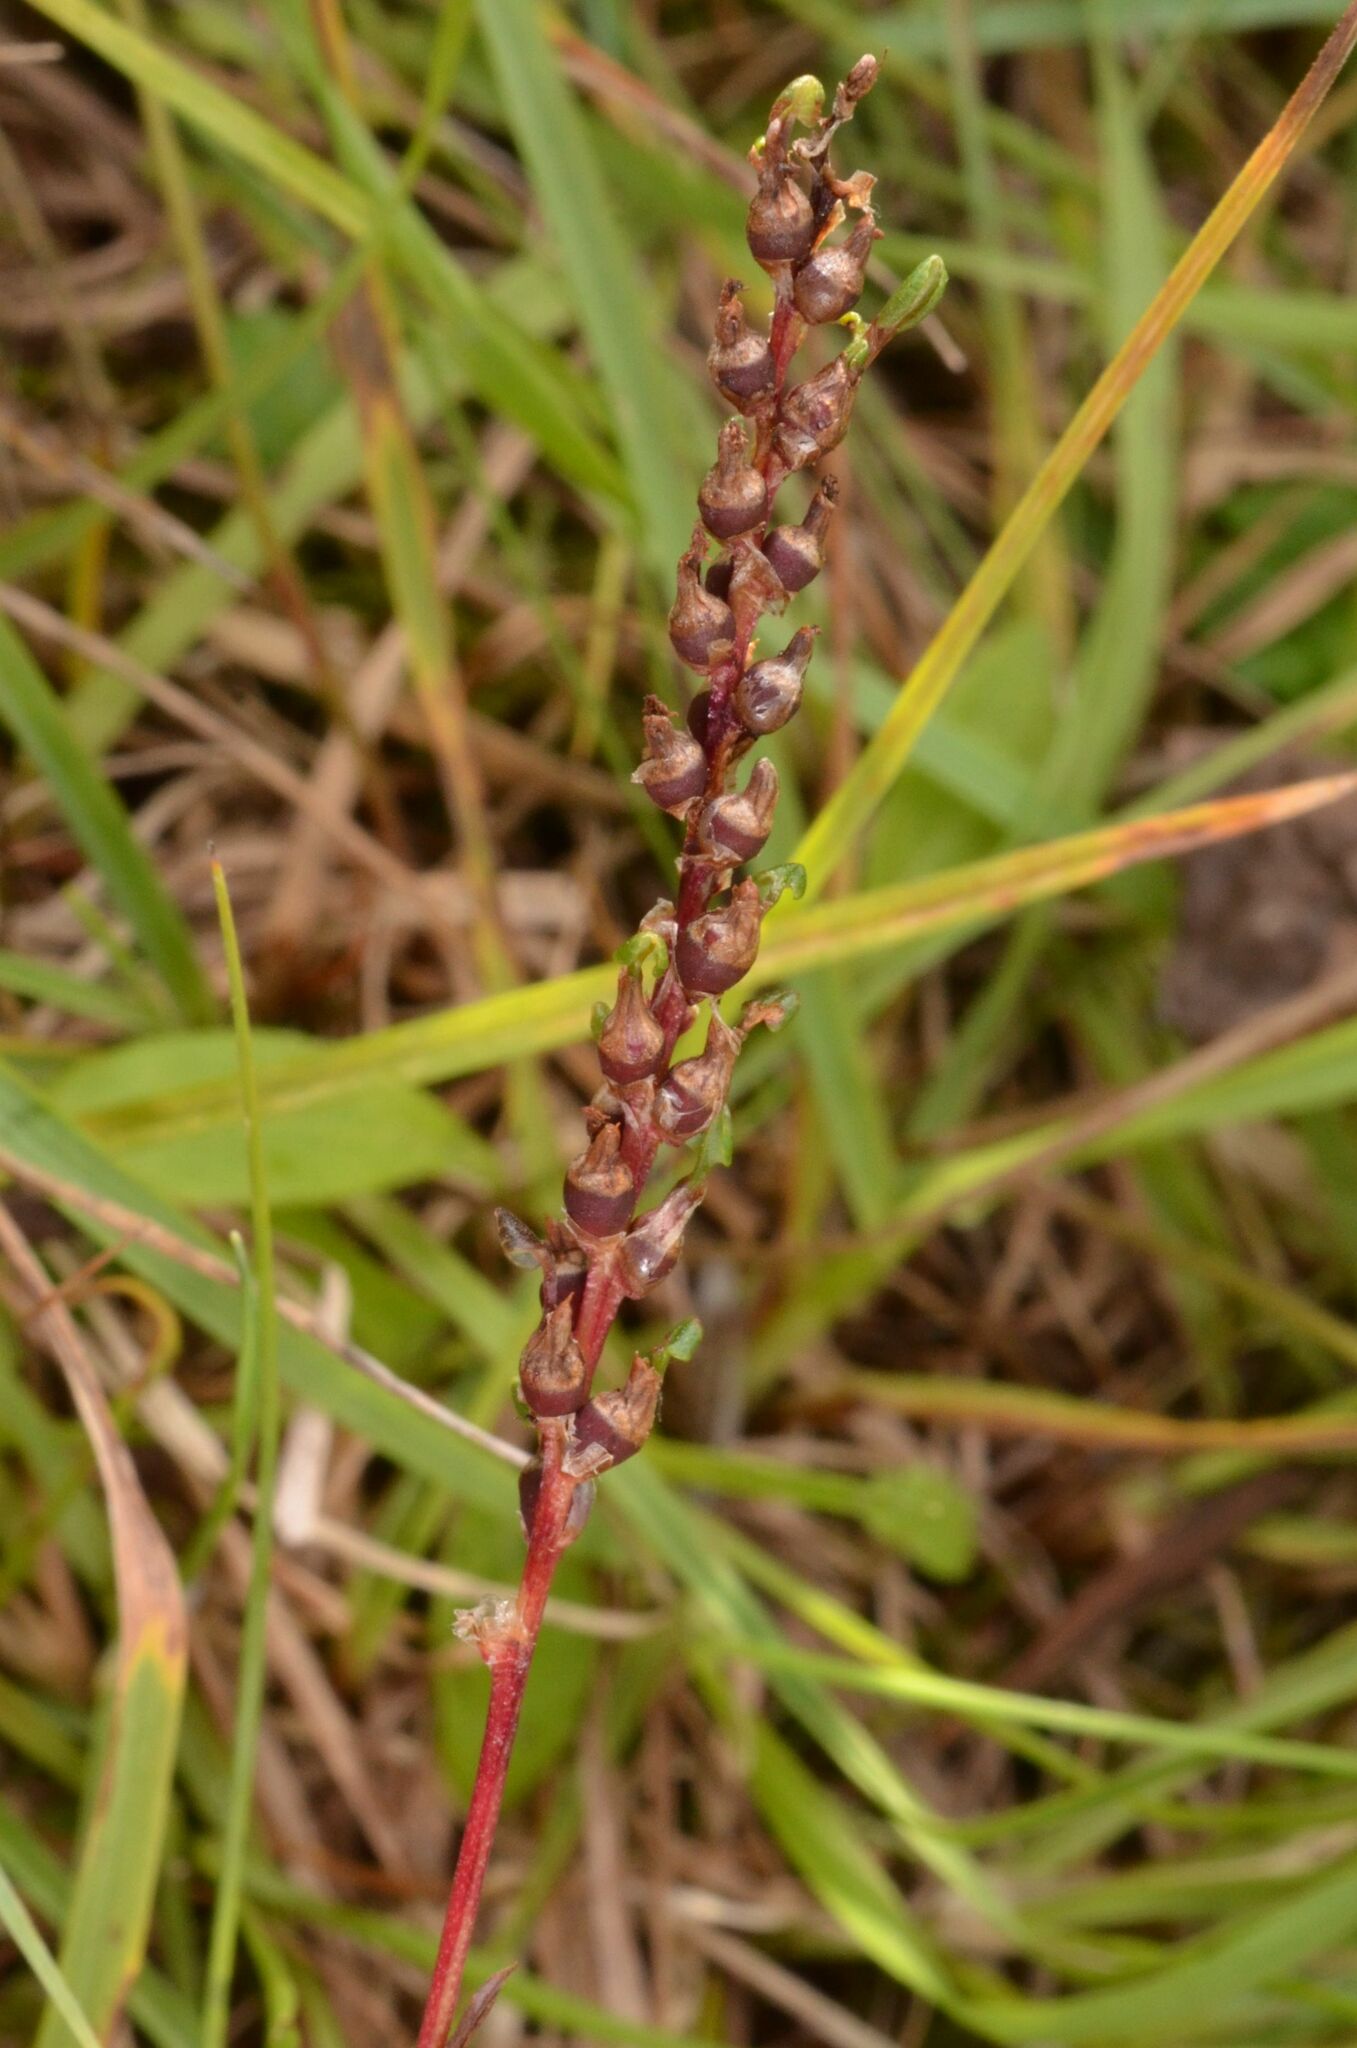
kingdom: Plantae
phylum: Tracheophyta
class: Magnoliopsida
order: Caryophyllales
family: Polygonaceae
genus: Bistorta
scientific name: Bistorta vivipara
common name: Alpine bistort
